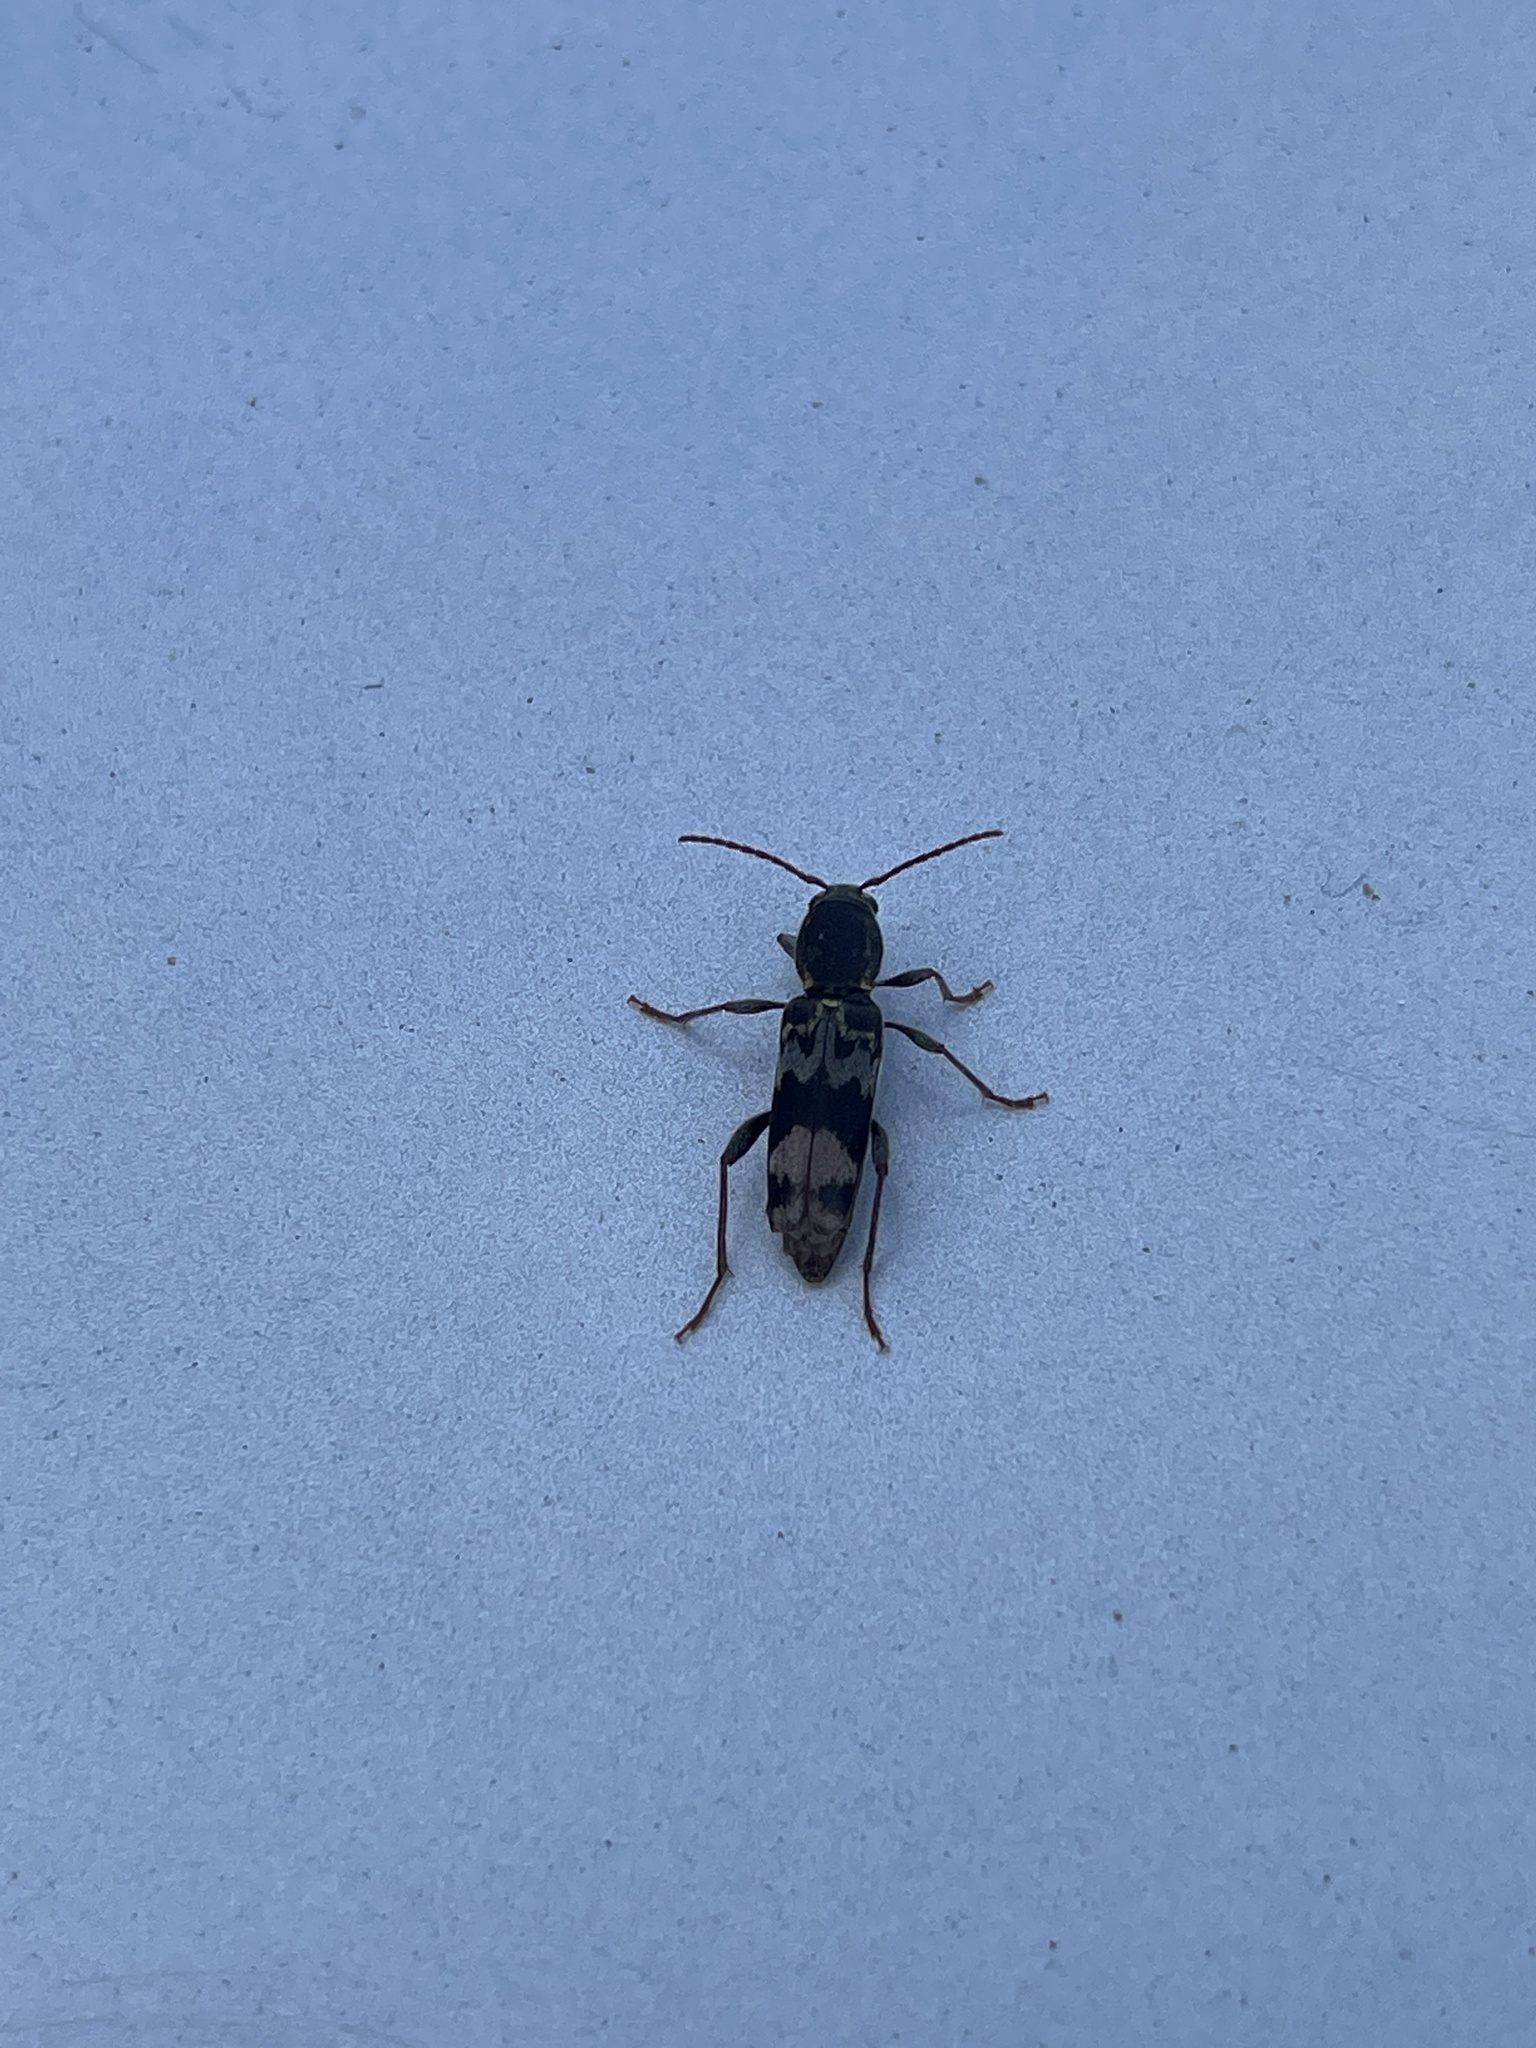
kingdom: Animalia
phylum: Arthropoda
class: Insecta
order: Coleoptera
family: Cerambycidae
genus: Xylotrechus
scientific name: Xylotrechus colonus
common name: Long-horned beetle
